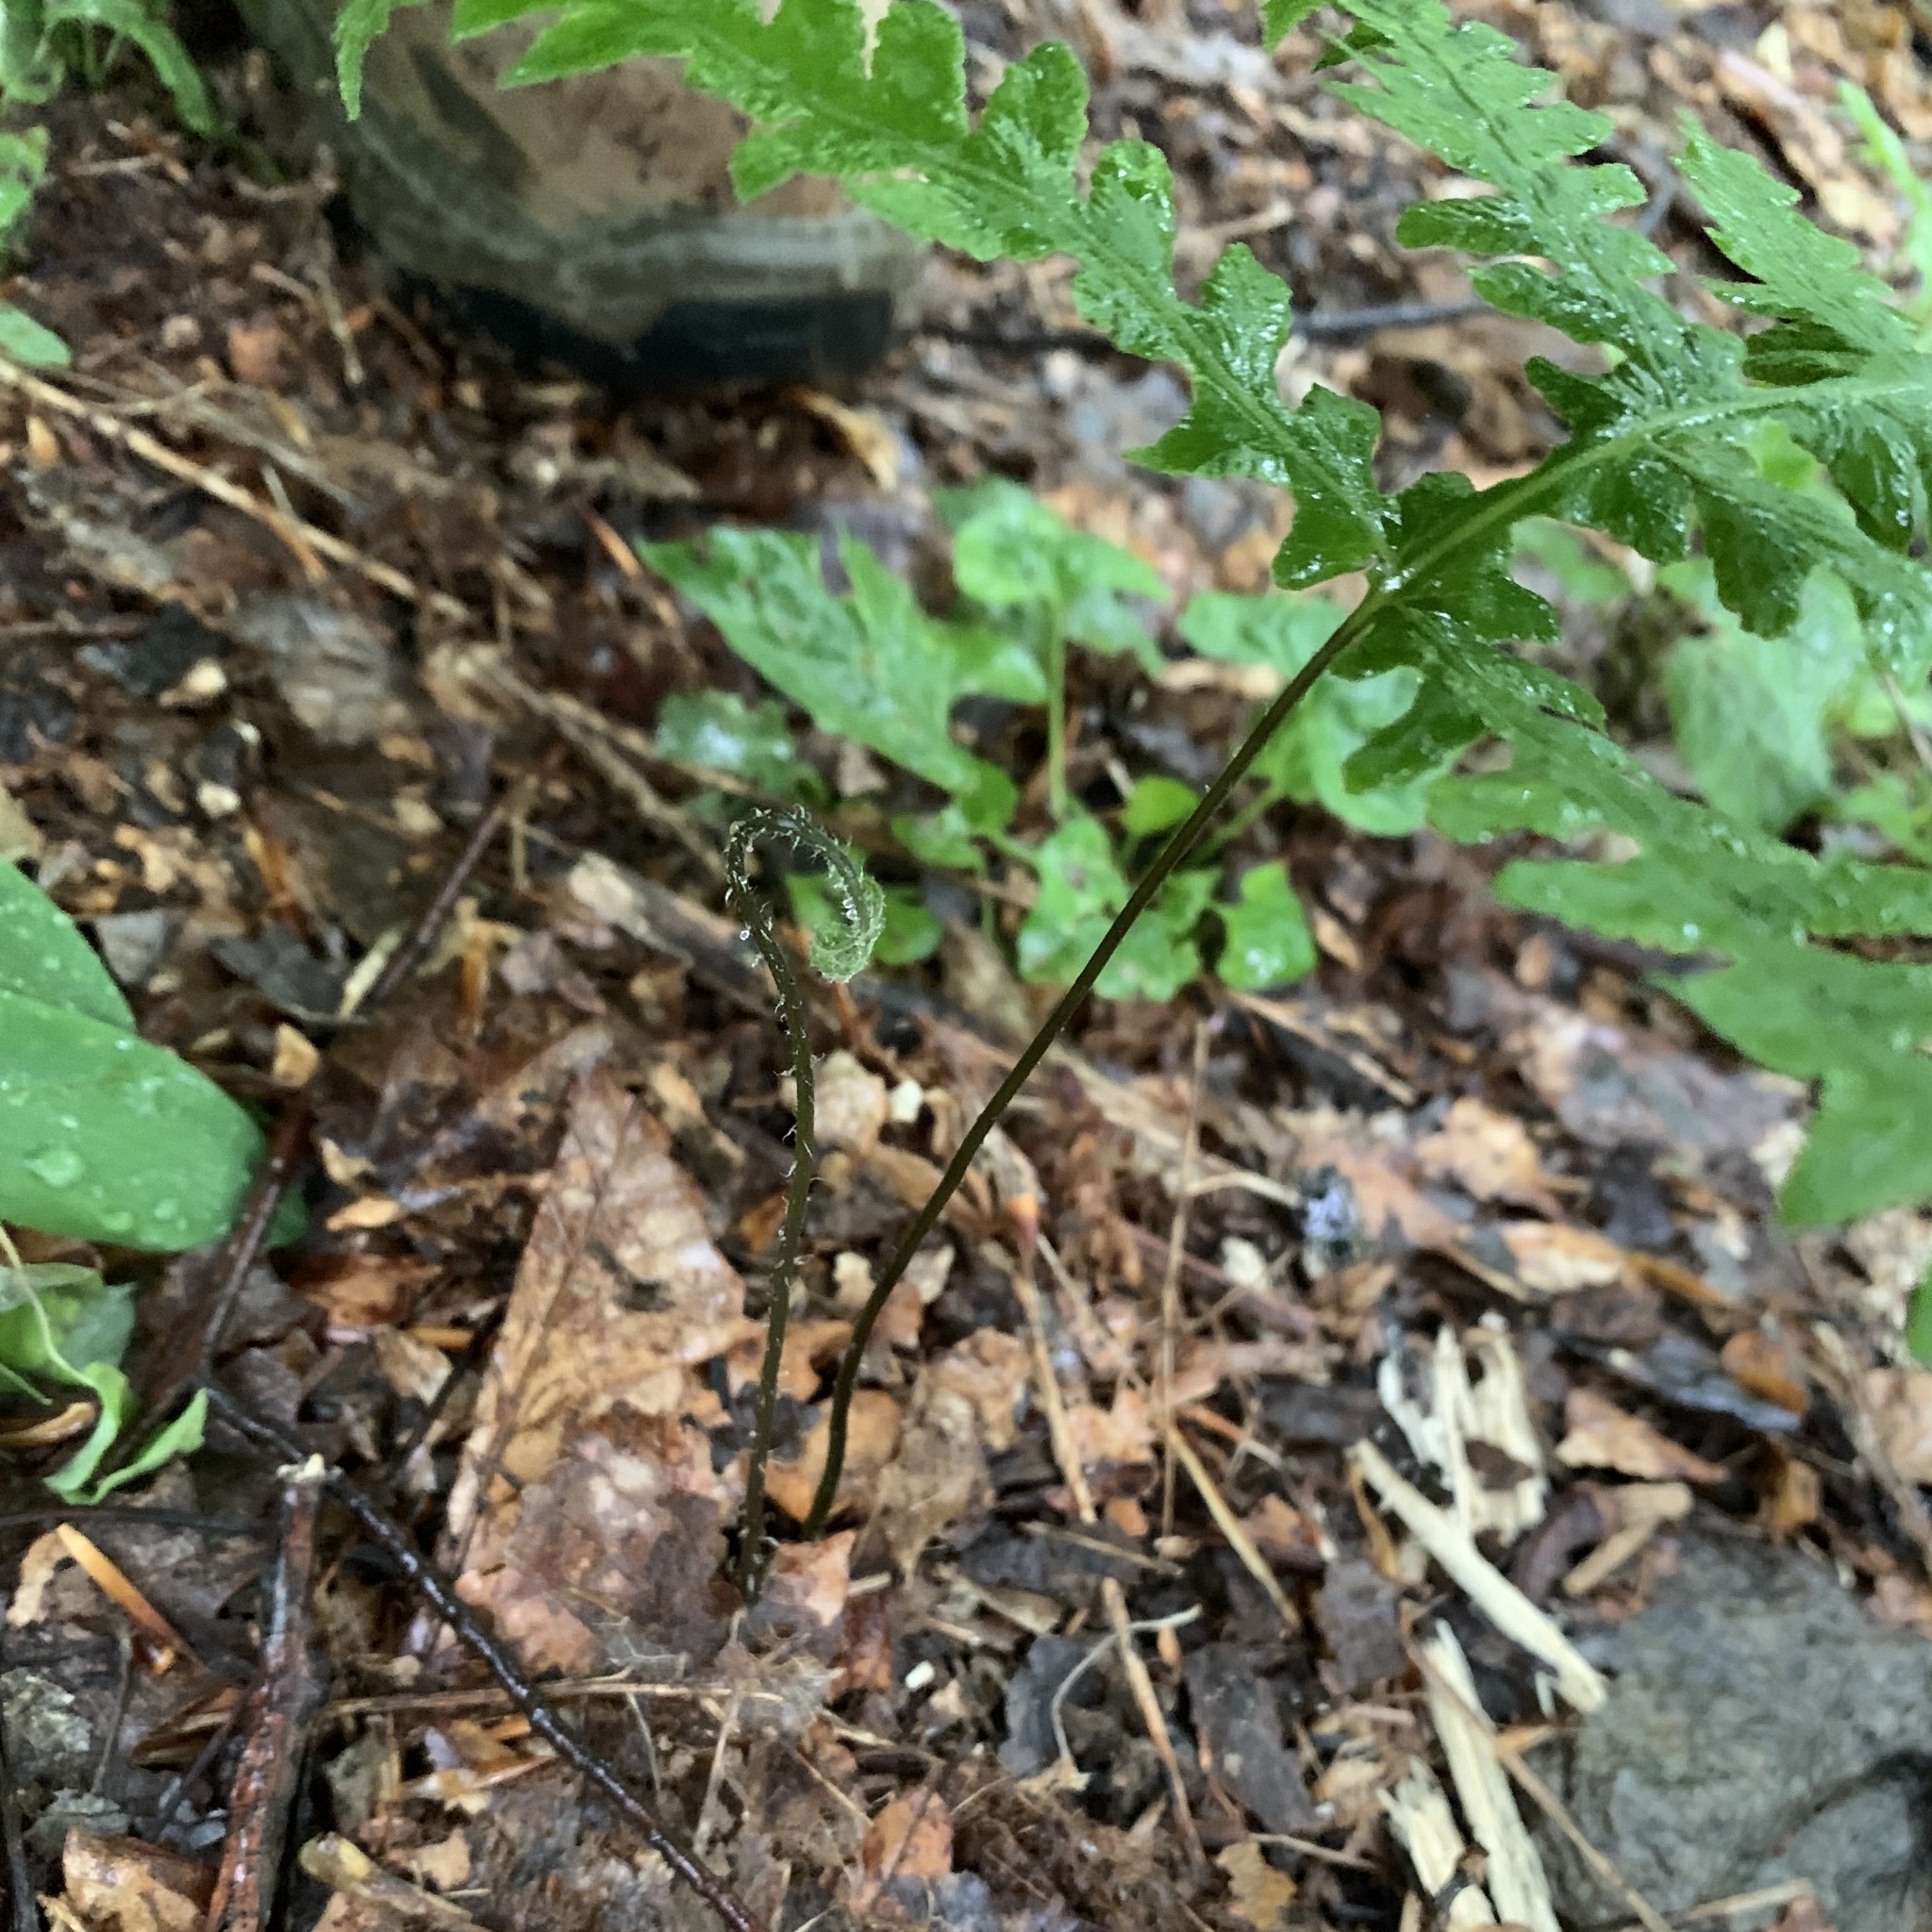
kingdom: Plantae
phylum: Tracheophyta
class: Polypodiopsida
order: Polypodiales
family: Thelypteridaceae
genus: Phegopteris
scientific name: Phegopteris hexagonoptera
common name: Broad beech fern
